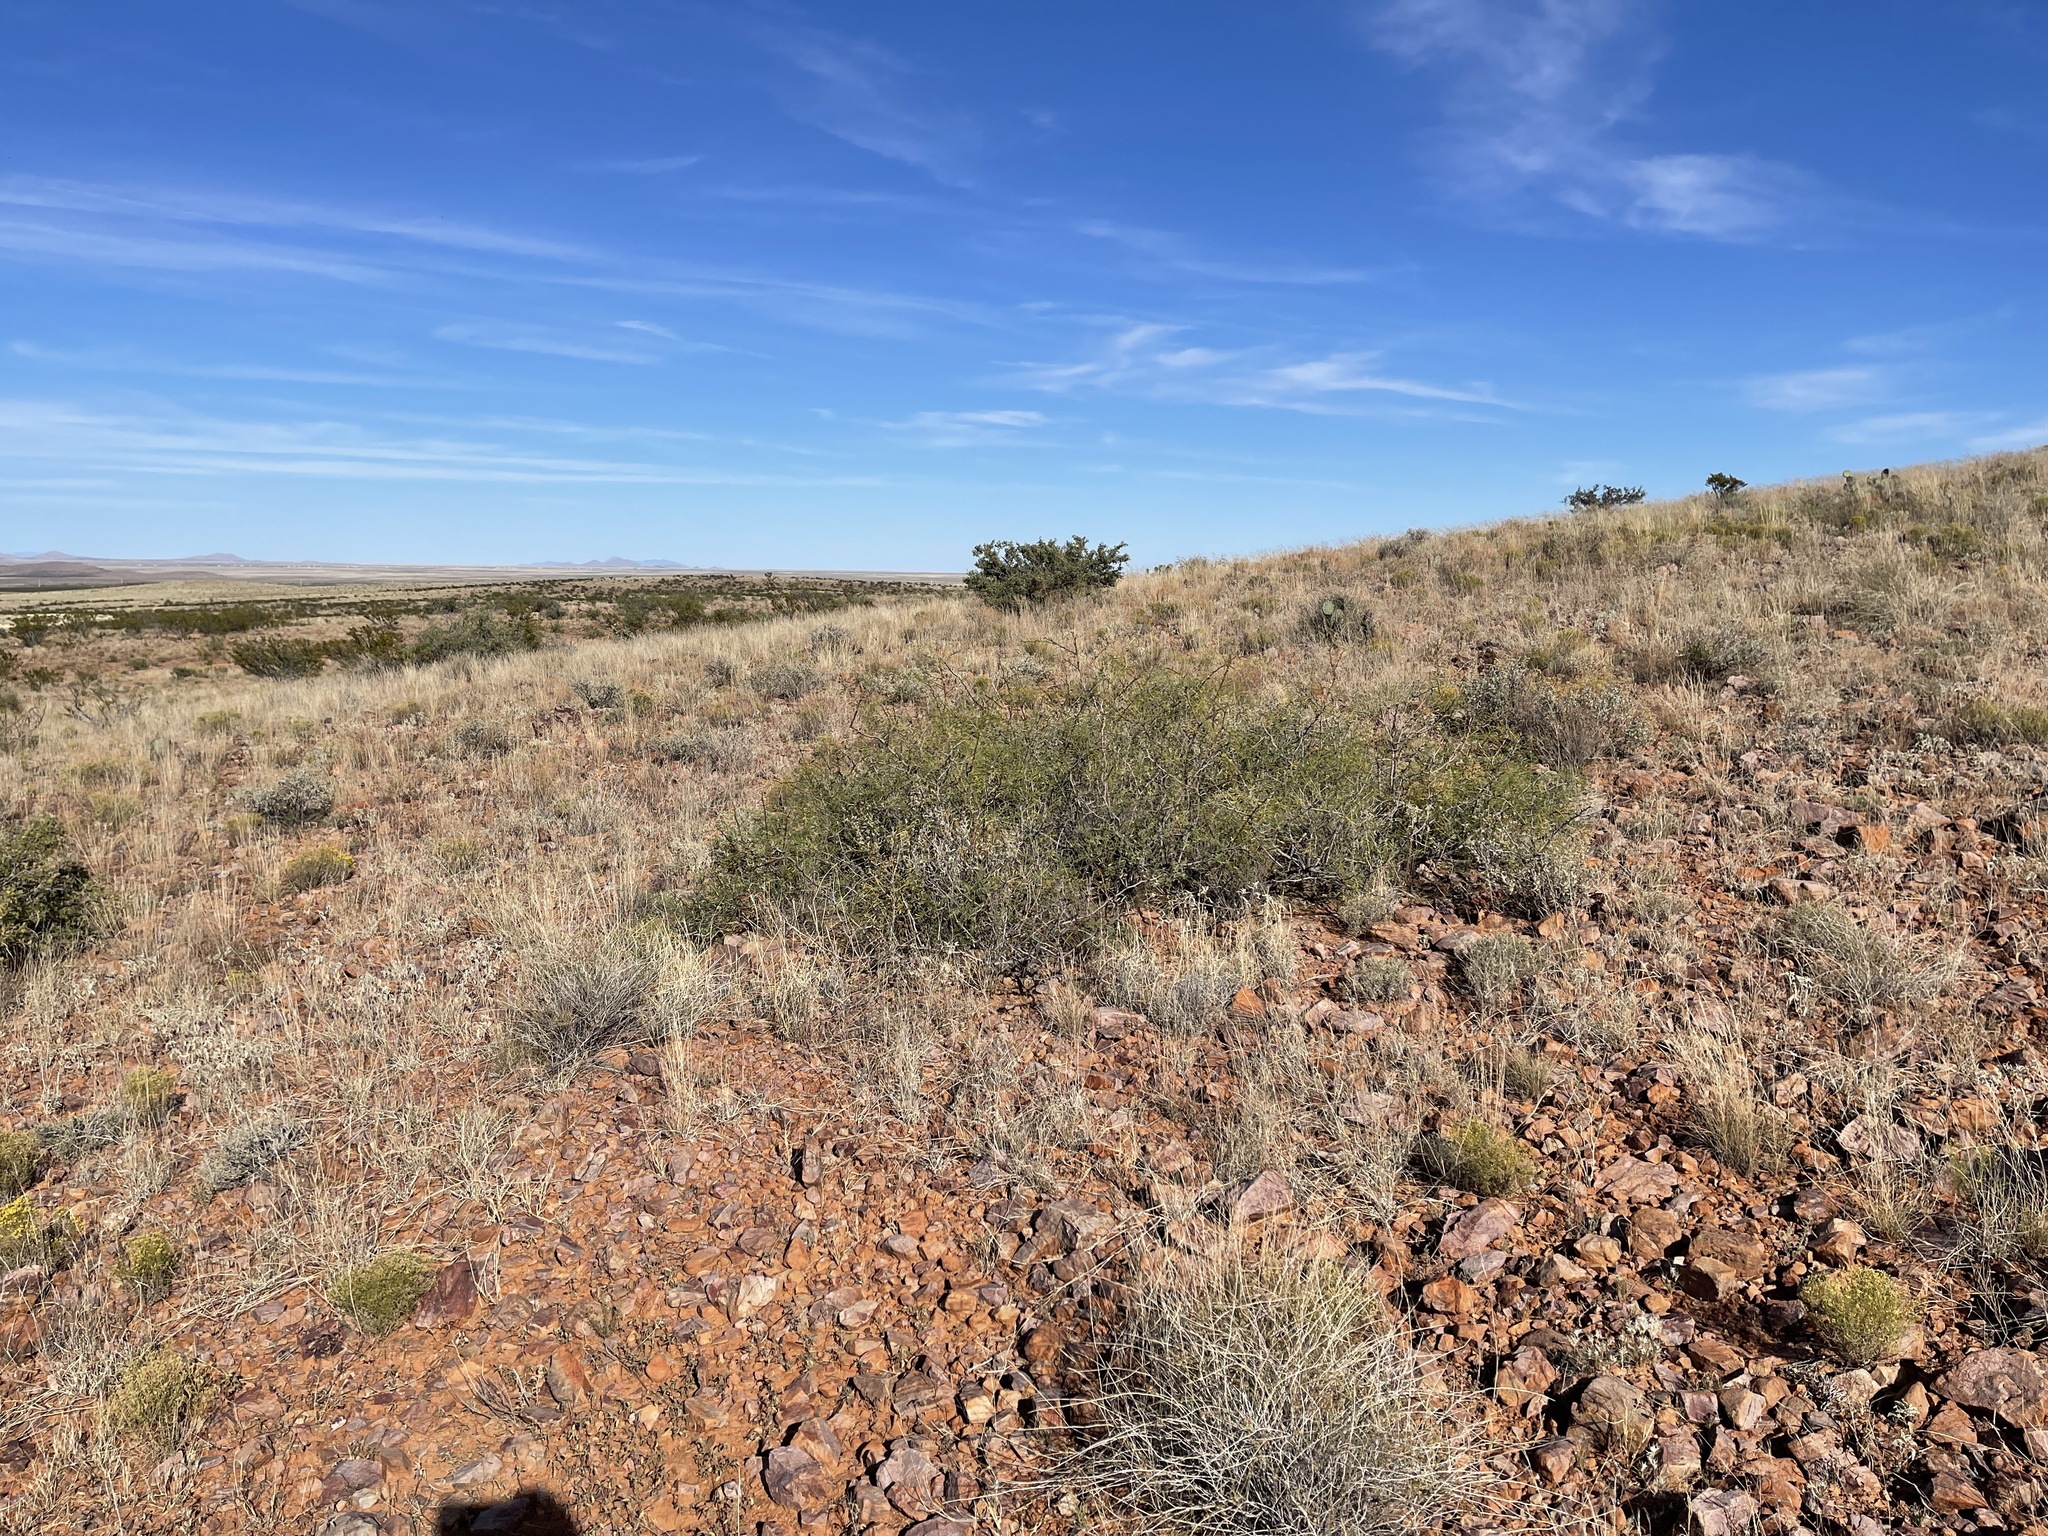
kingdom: Plantae
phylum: Tracheophyta
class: Magnoliopsida
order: Fabales
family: Fabaceae
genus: Prosopis
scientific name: Prosopis glandulosa
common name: Honey mesquite
